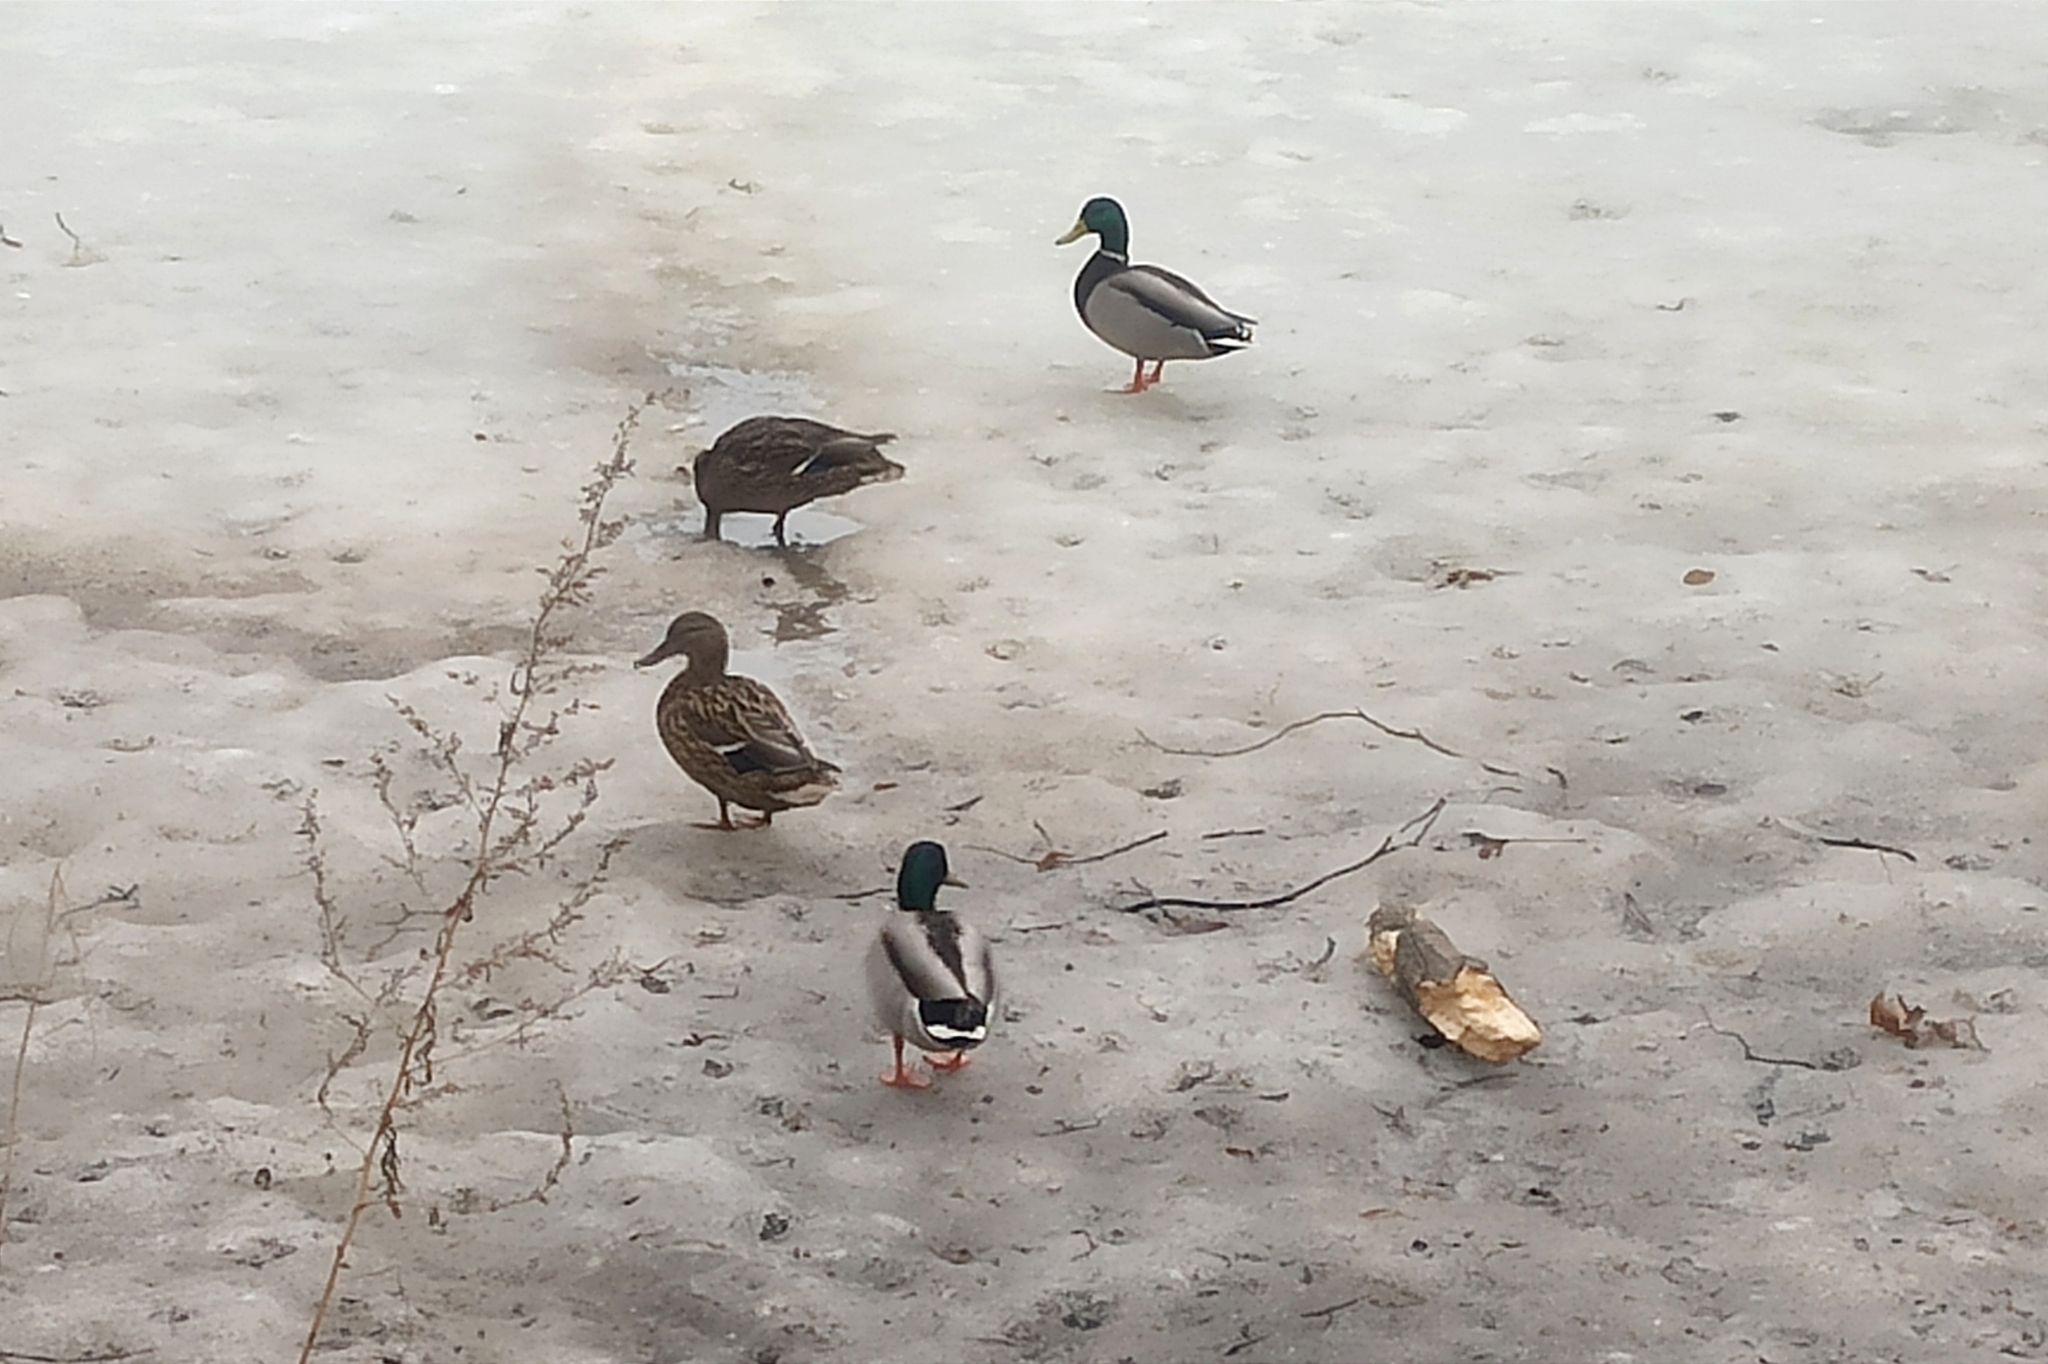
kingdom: Animalia
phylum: Chordata
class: Aves
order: Anseriformes
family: Anatidae
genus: Anas
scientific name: Anas platyrhynchos
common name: Mallard
